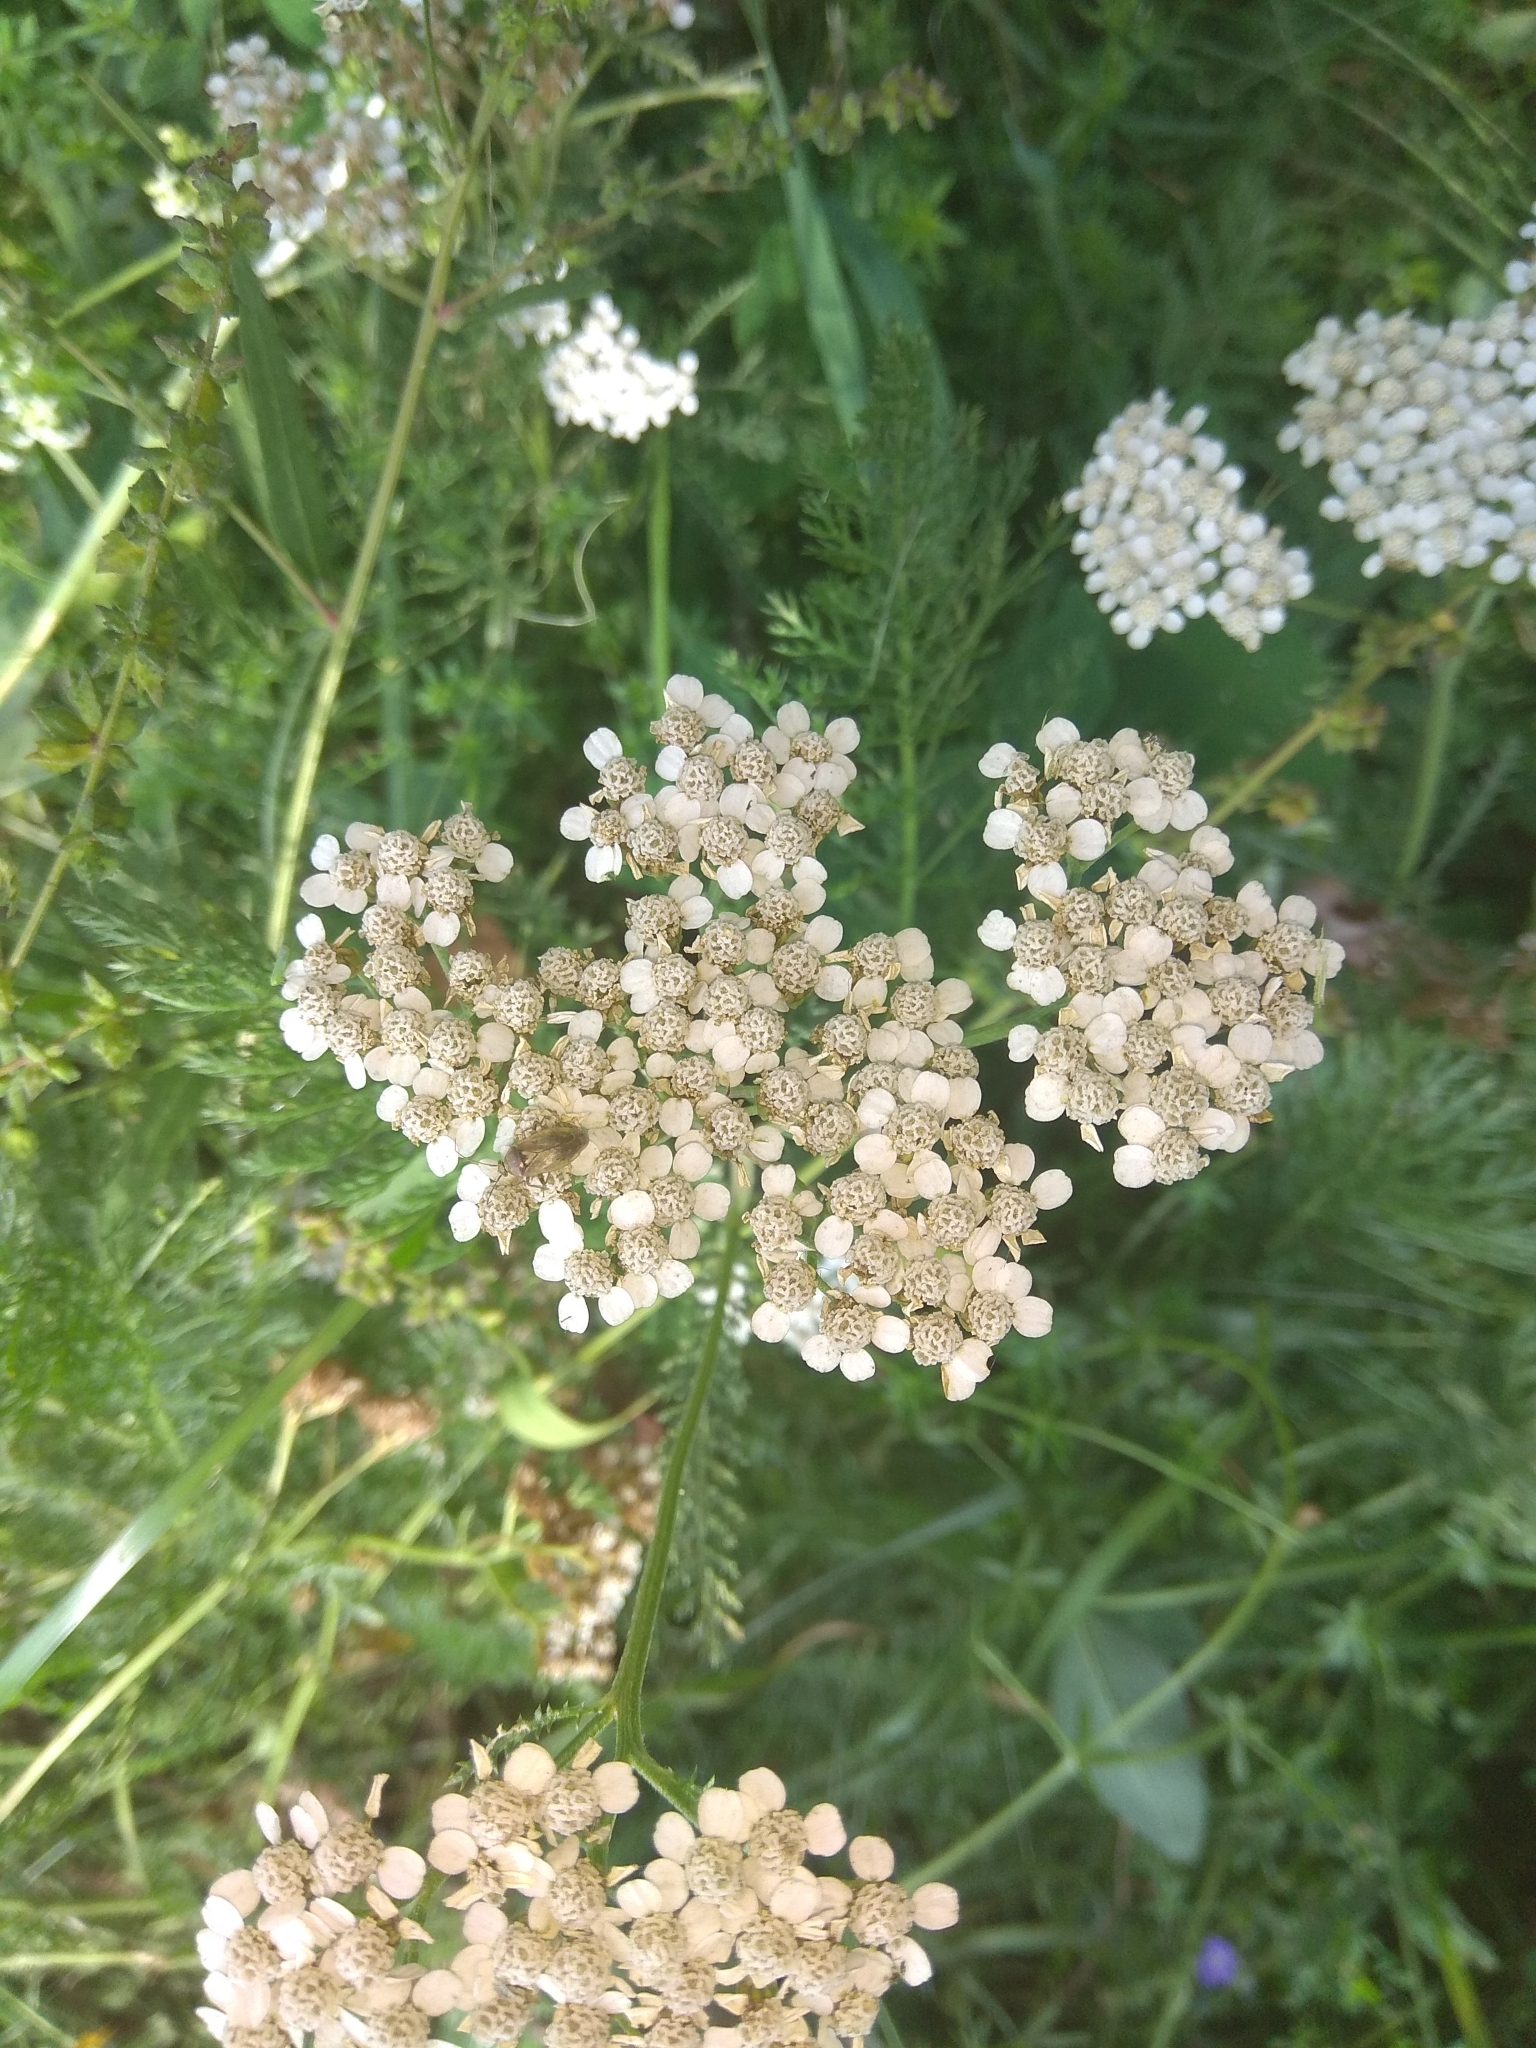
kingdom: Plantae
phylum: Tracheophyta
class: Magnoliopsida
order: Asterales
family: Asteraceae
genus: Achillea
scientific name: Achillea millefolium
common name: Yarrow
